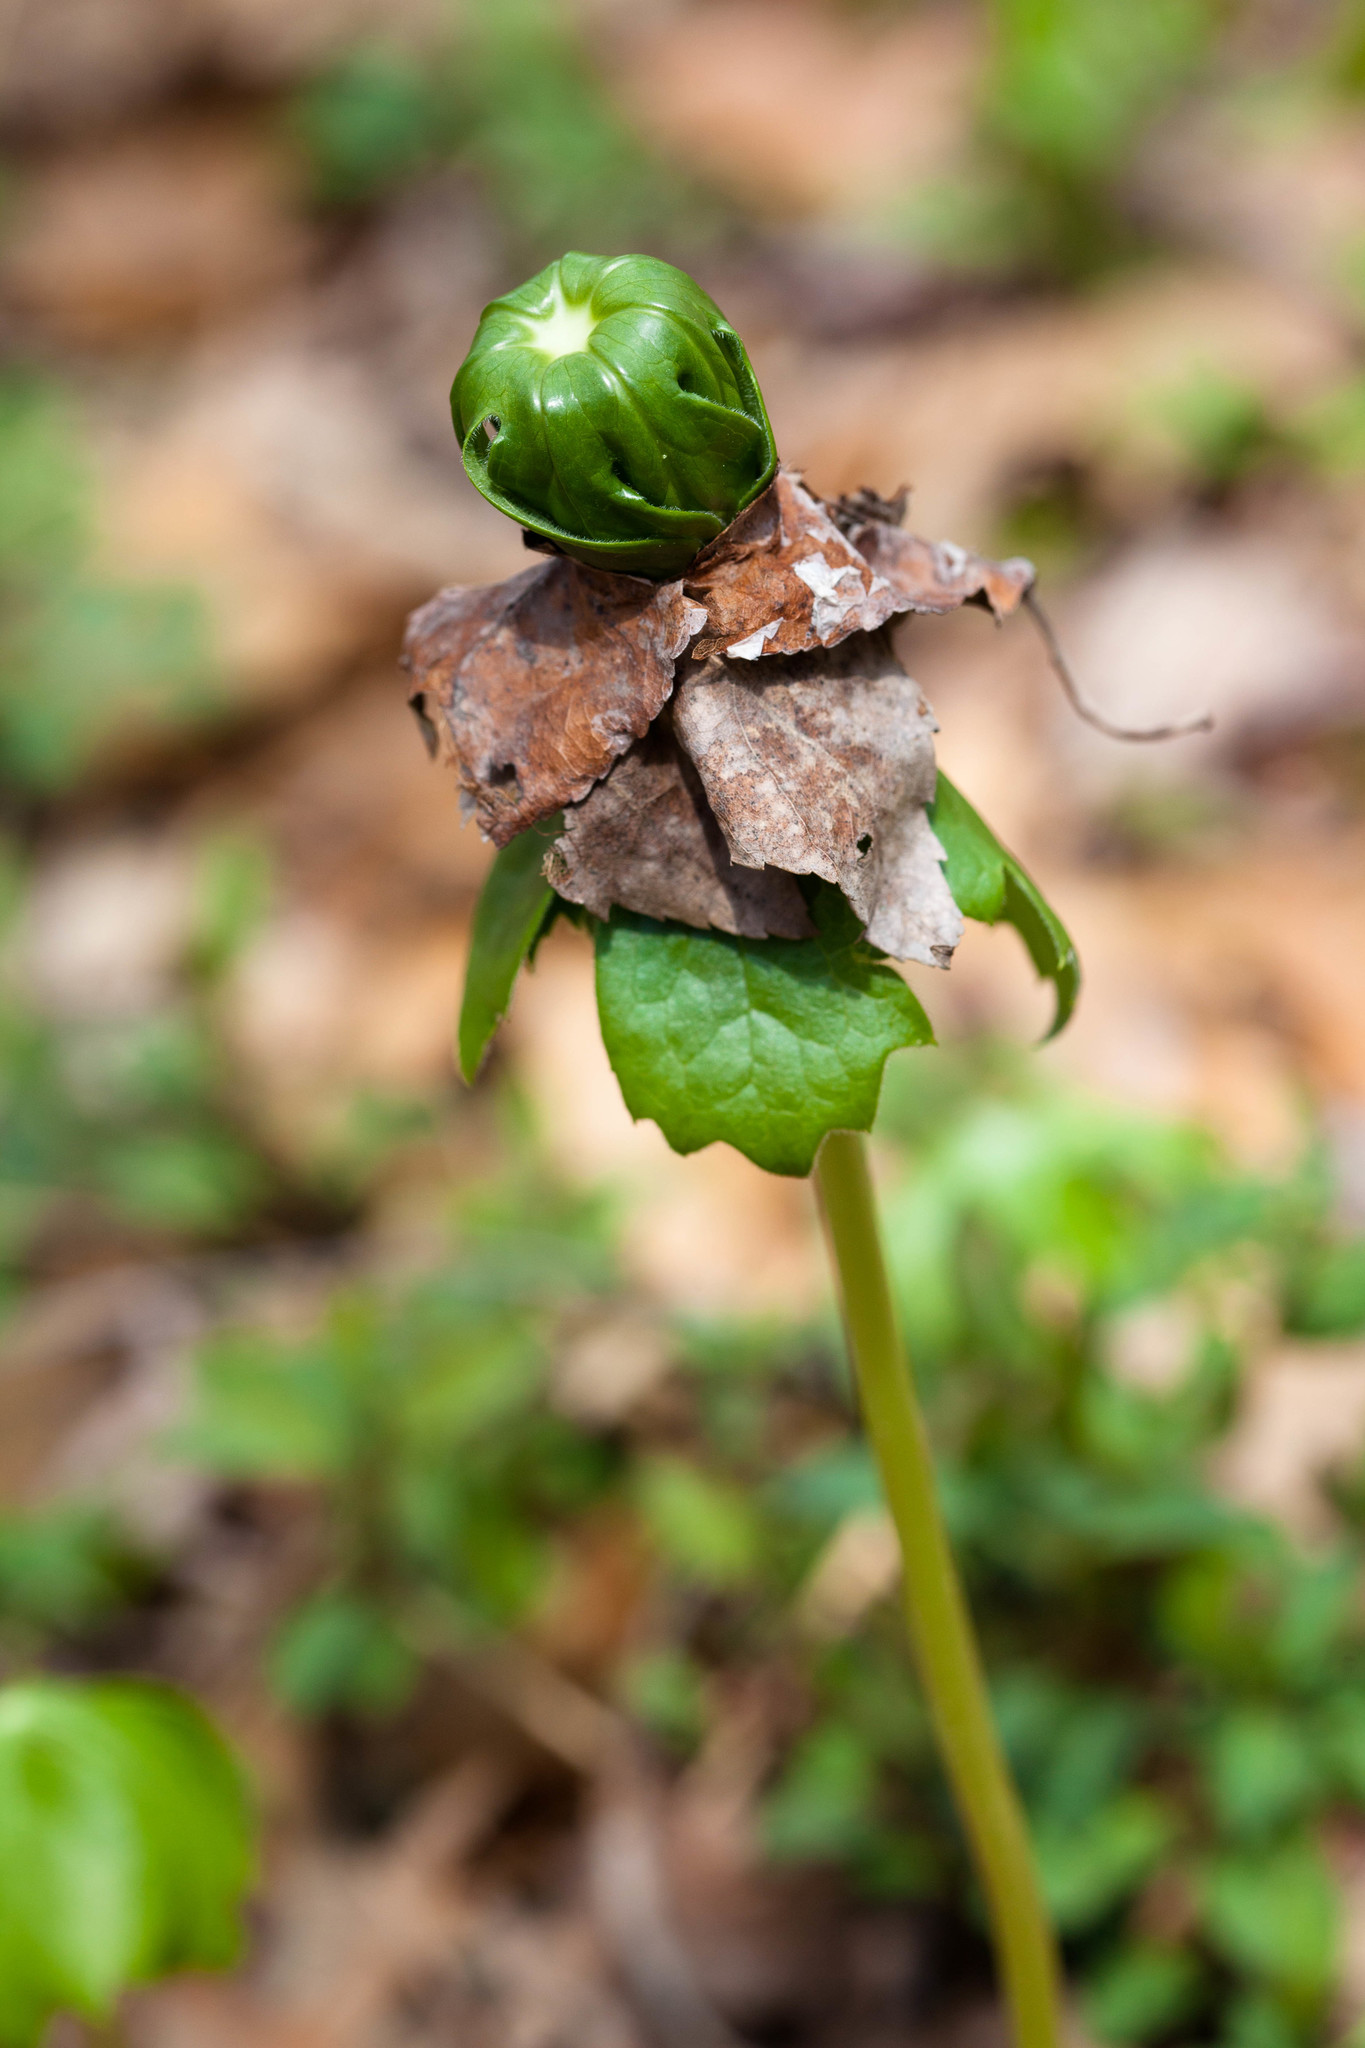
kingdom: Plantae
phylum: Tracheophyta
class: Magnoliopsida
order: Ranunculales
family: Berberidaceae
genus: Podophyllum
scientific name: Podophyllum peltatum
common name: Wild mandrake
